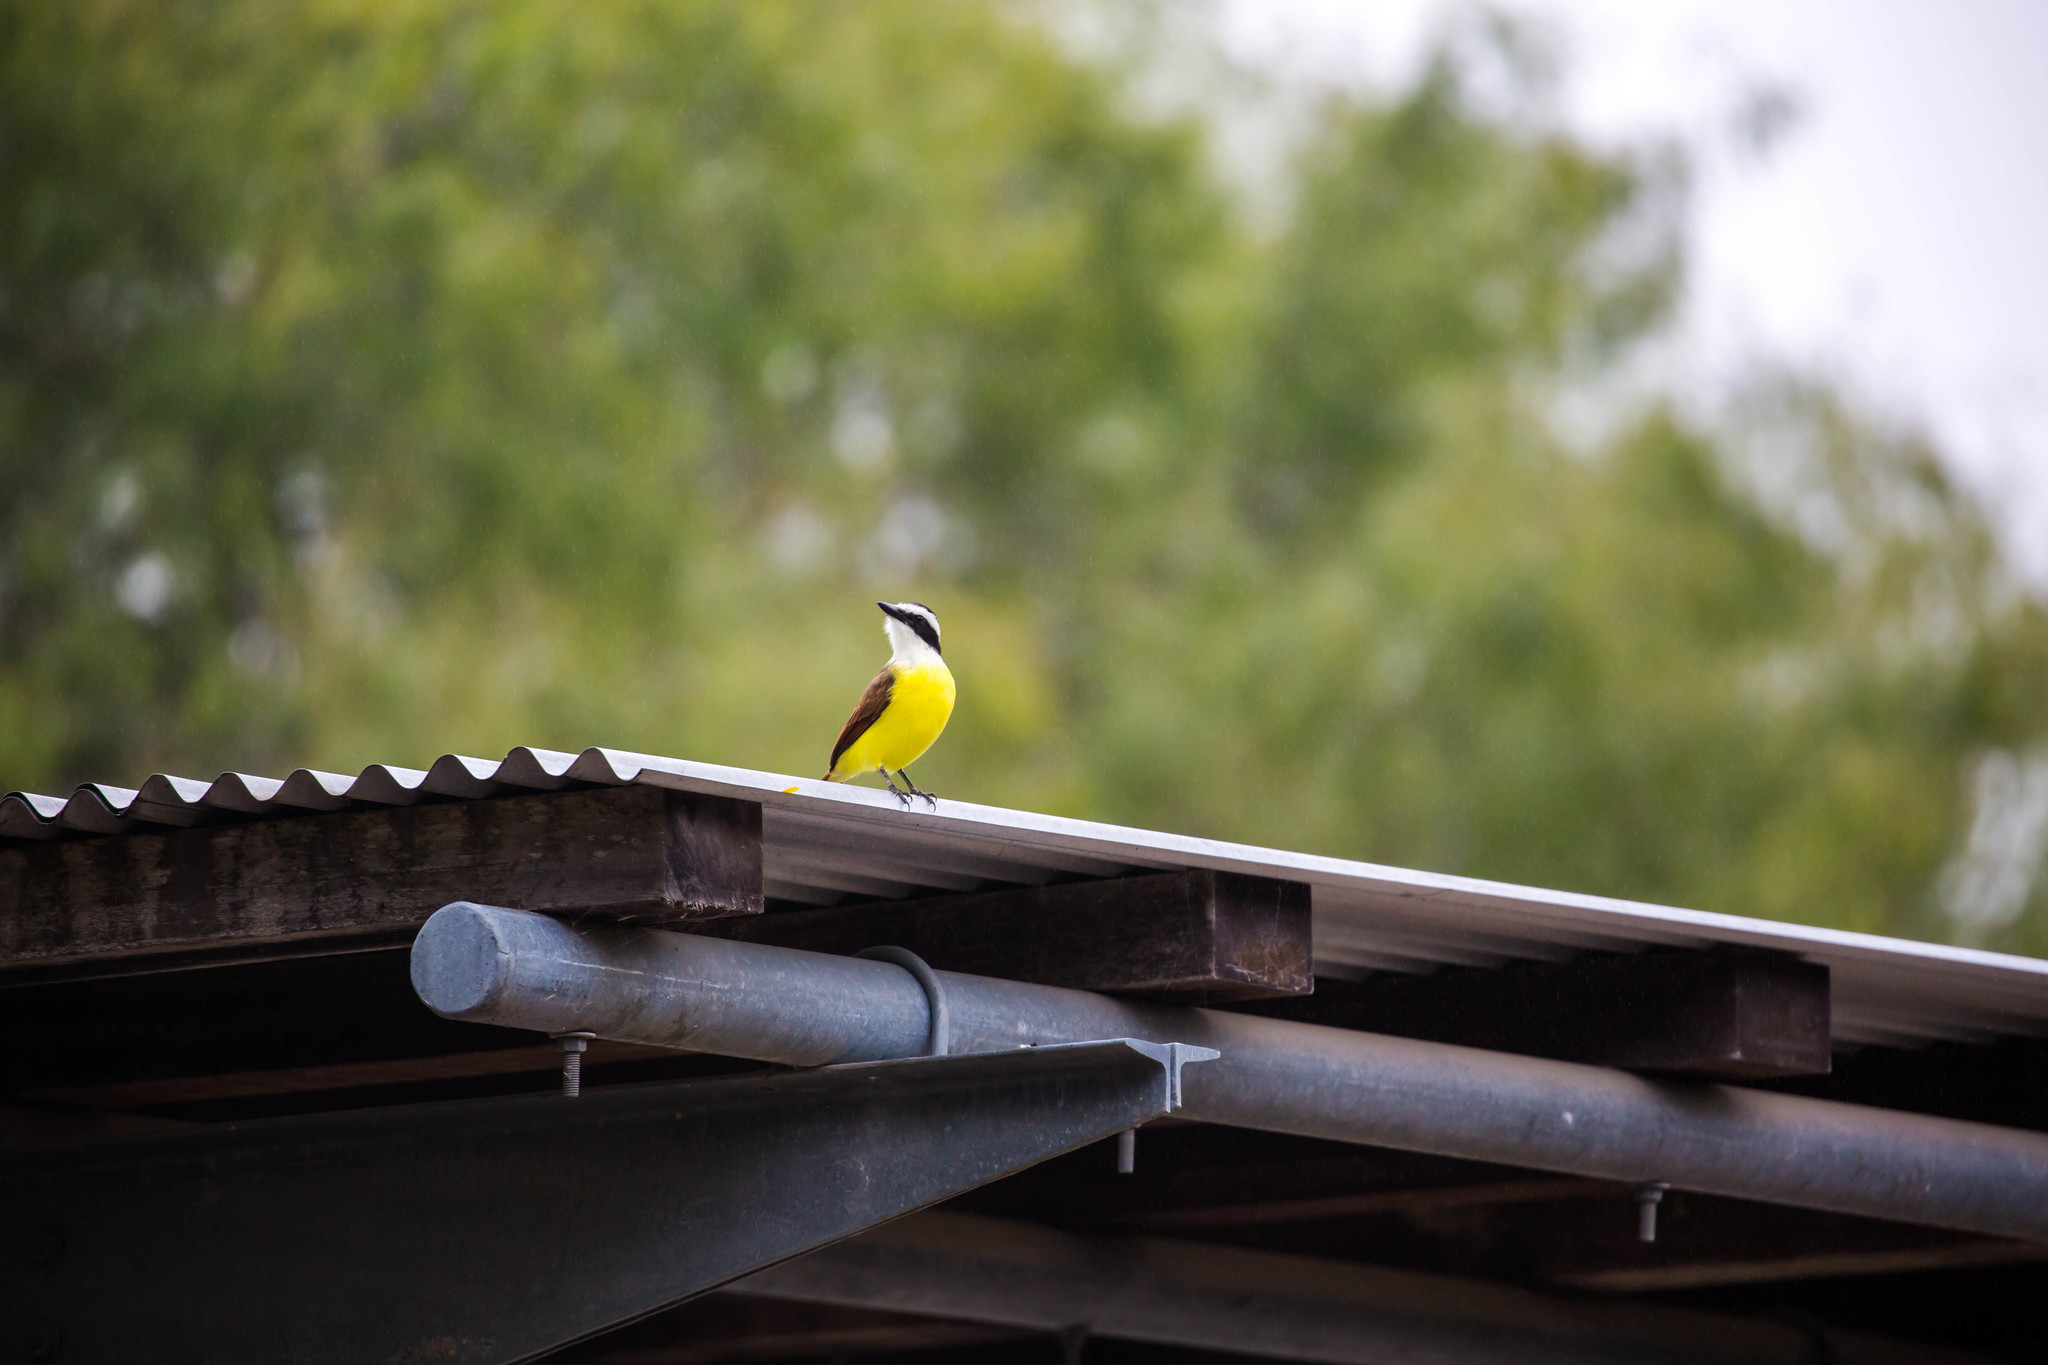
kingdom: Animalia
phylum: Chordata
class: Aves
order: Passeriformes
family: Tyrannidae
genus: Pitangus
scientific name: Pitangus sulphuratus
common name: Great kiskadee
